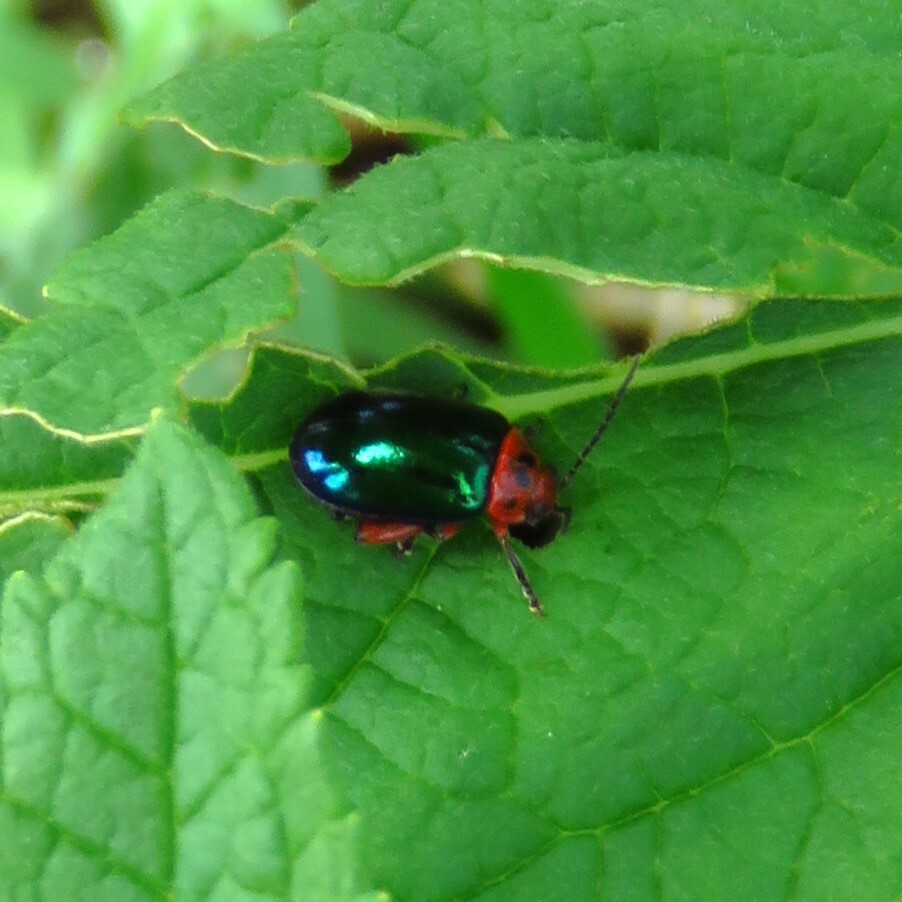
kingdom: Animalia
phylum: Arthropoda
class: Insecta
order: Coleoptera
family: Chrysomelidae
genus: Kuschelina
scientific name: Kuschelina gibbitarsa
